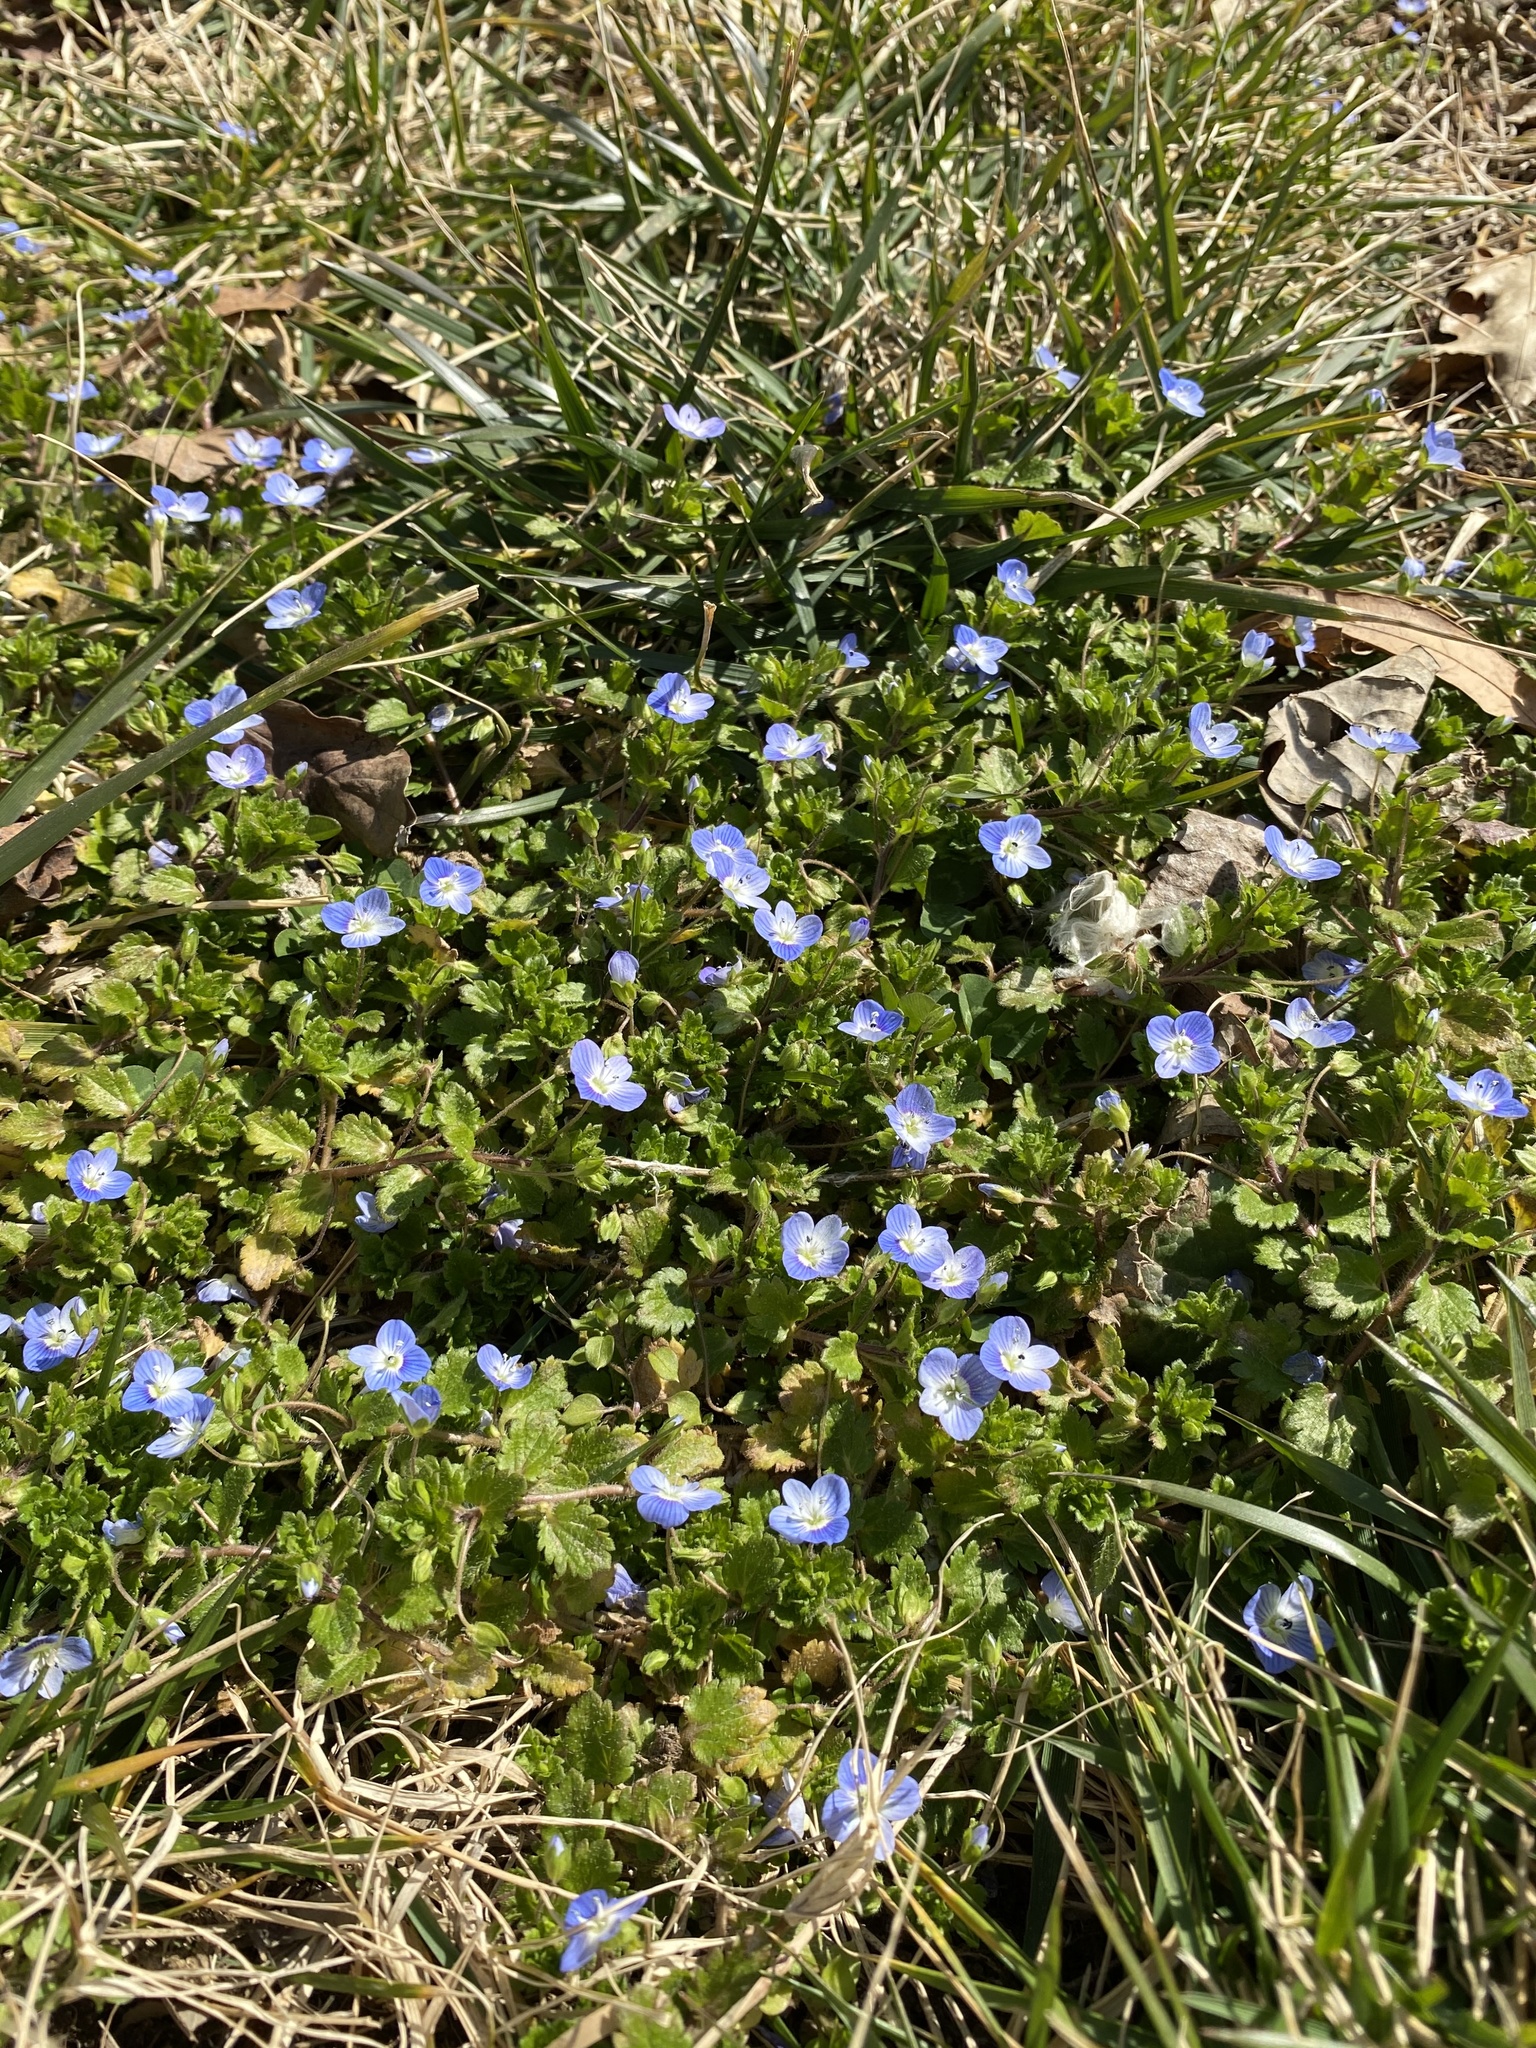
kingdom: Plantae
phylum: Tracheophyta
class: Magnoliopsida
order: Lamiales
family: Plantaginaceae
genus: Veronica
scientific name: Veronica persica
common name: Common field-speedwell
